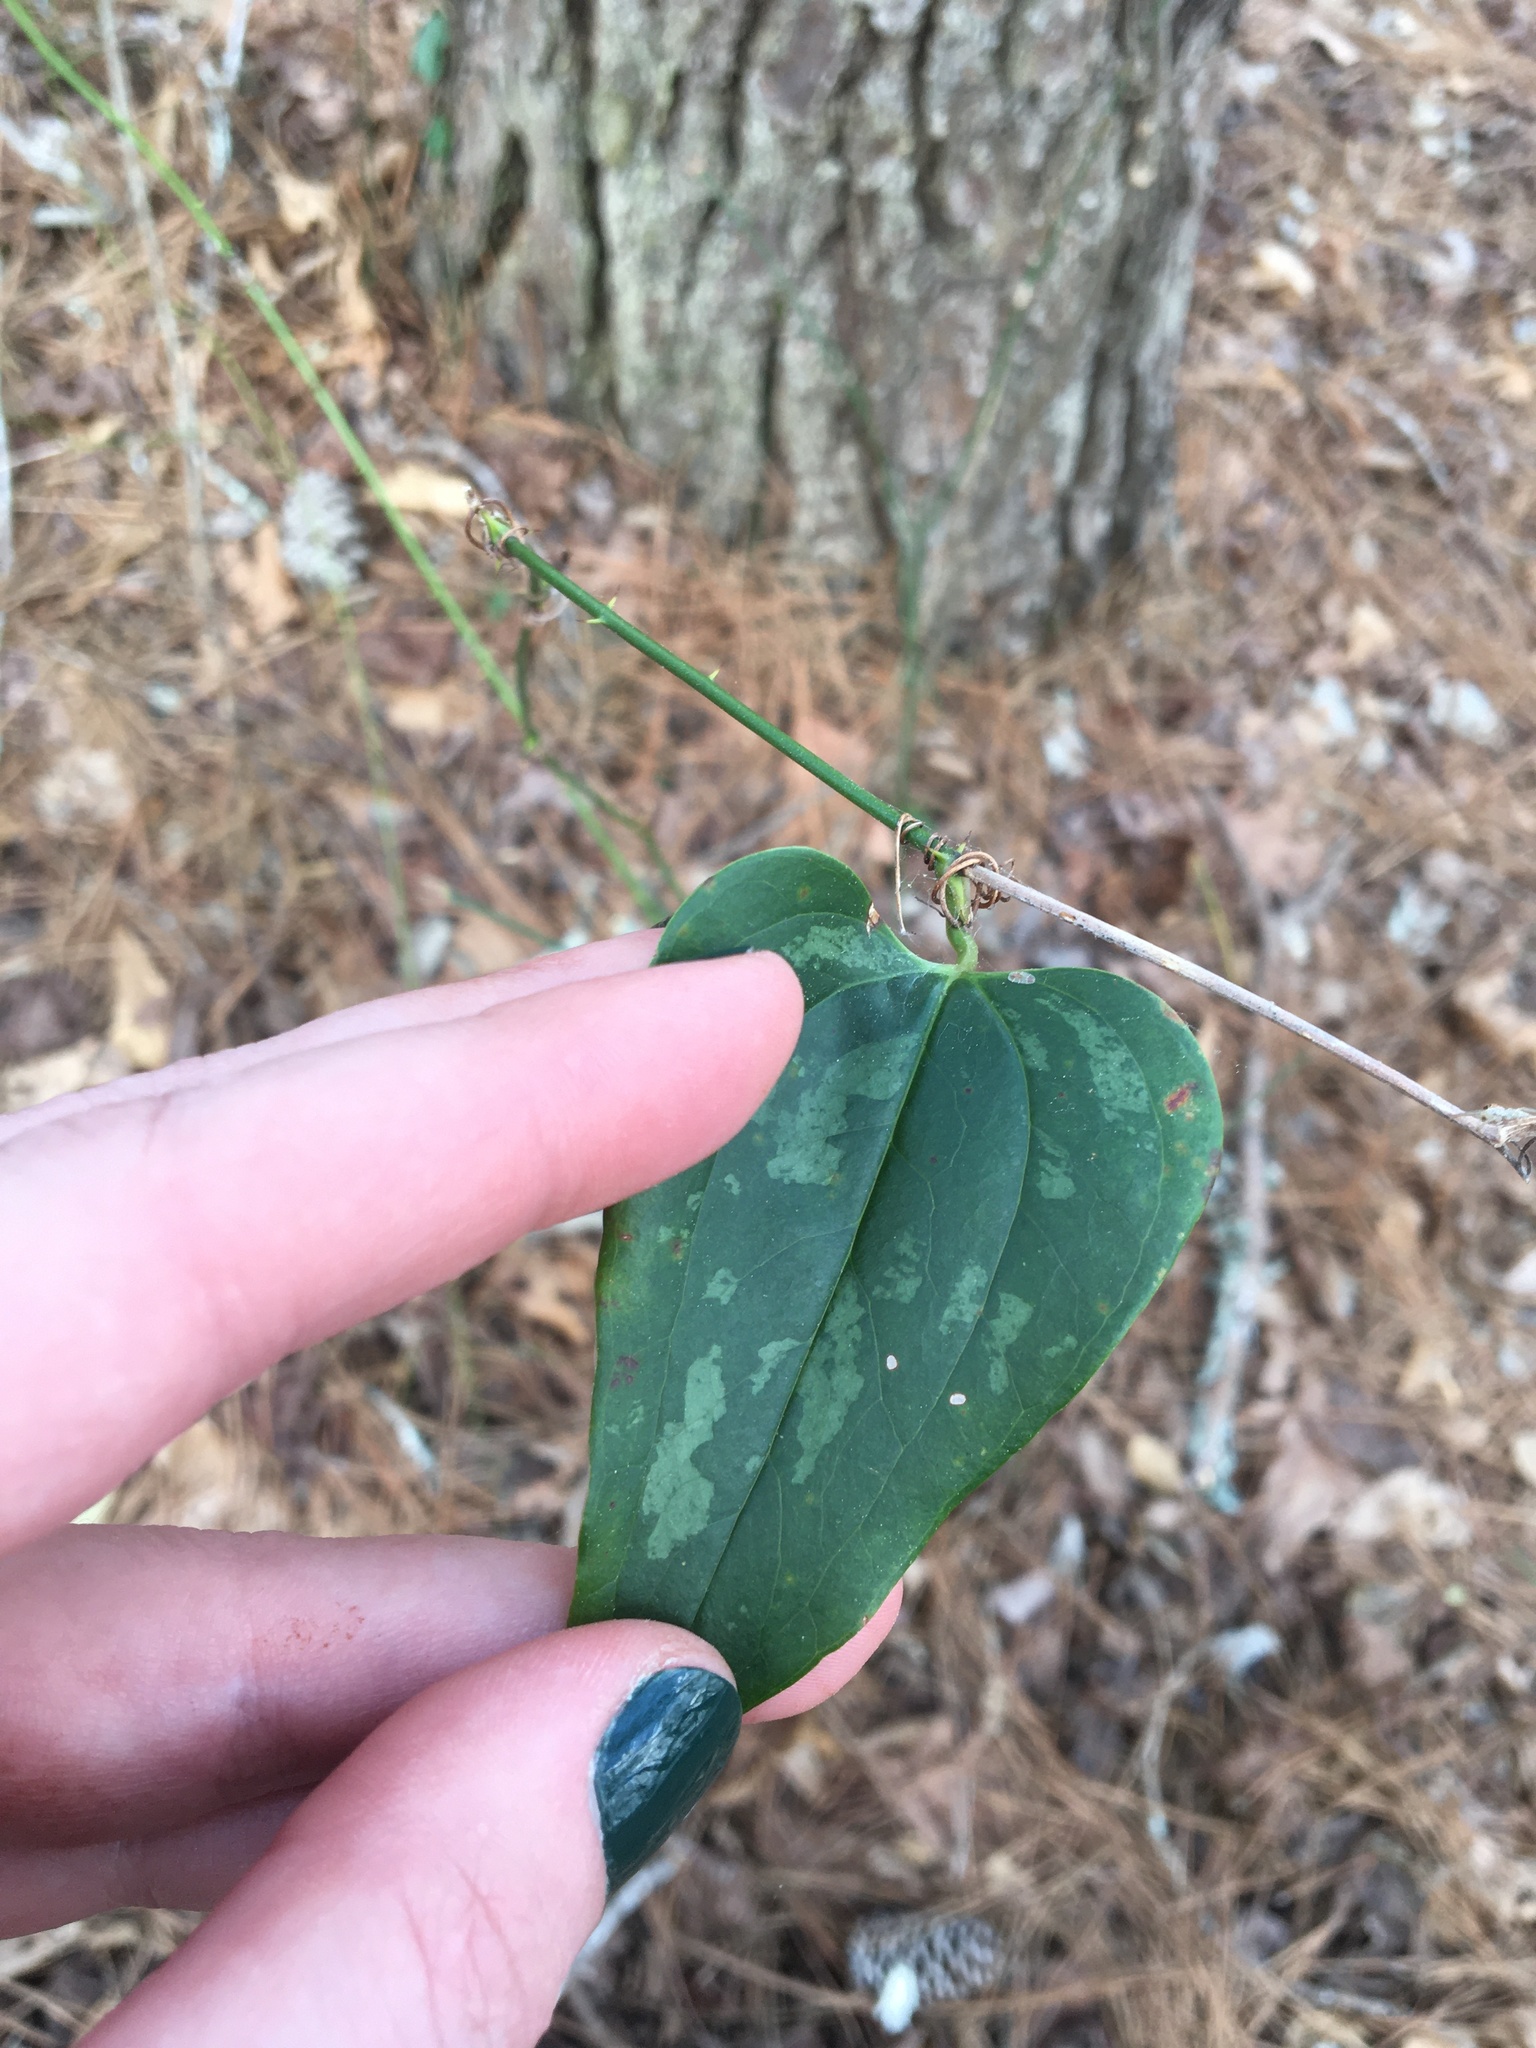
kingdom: Plantae
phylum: Tracheophyta
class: Liliopsida
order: Liliales
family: Smilacaceae
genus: Smilax
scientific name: Smilax glauca
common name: Cat greenbrier
